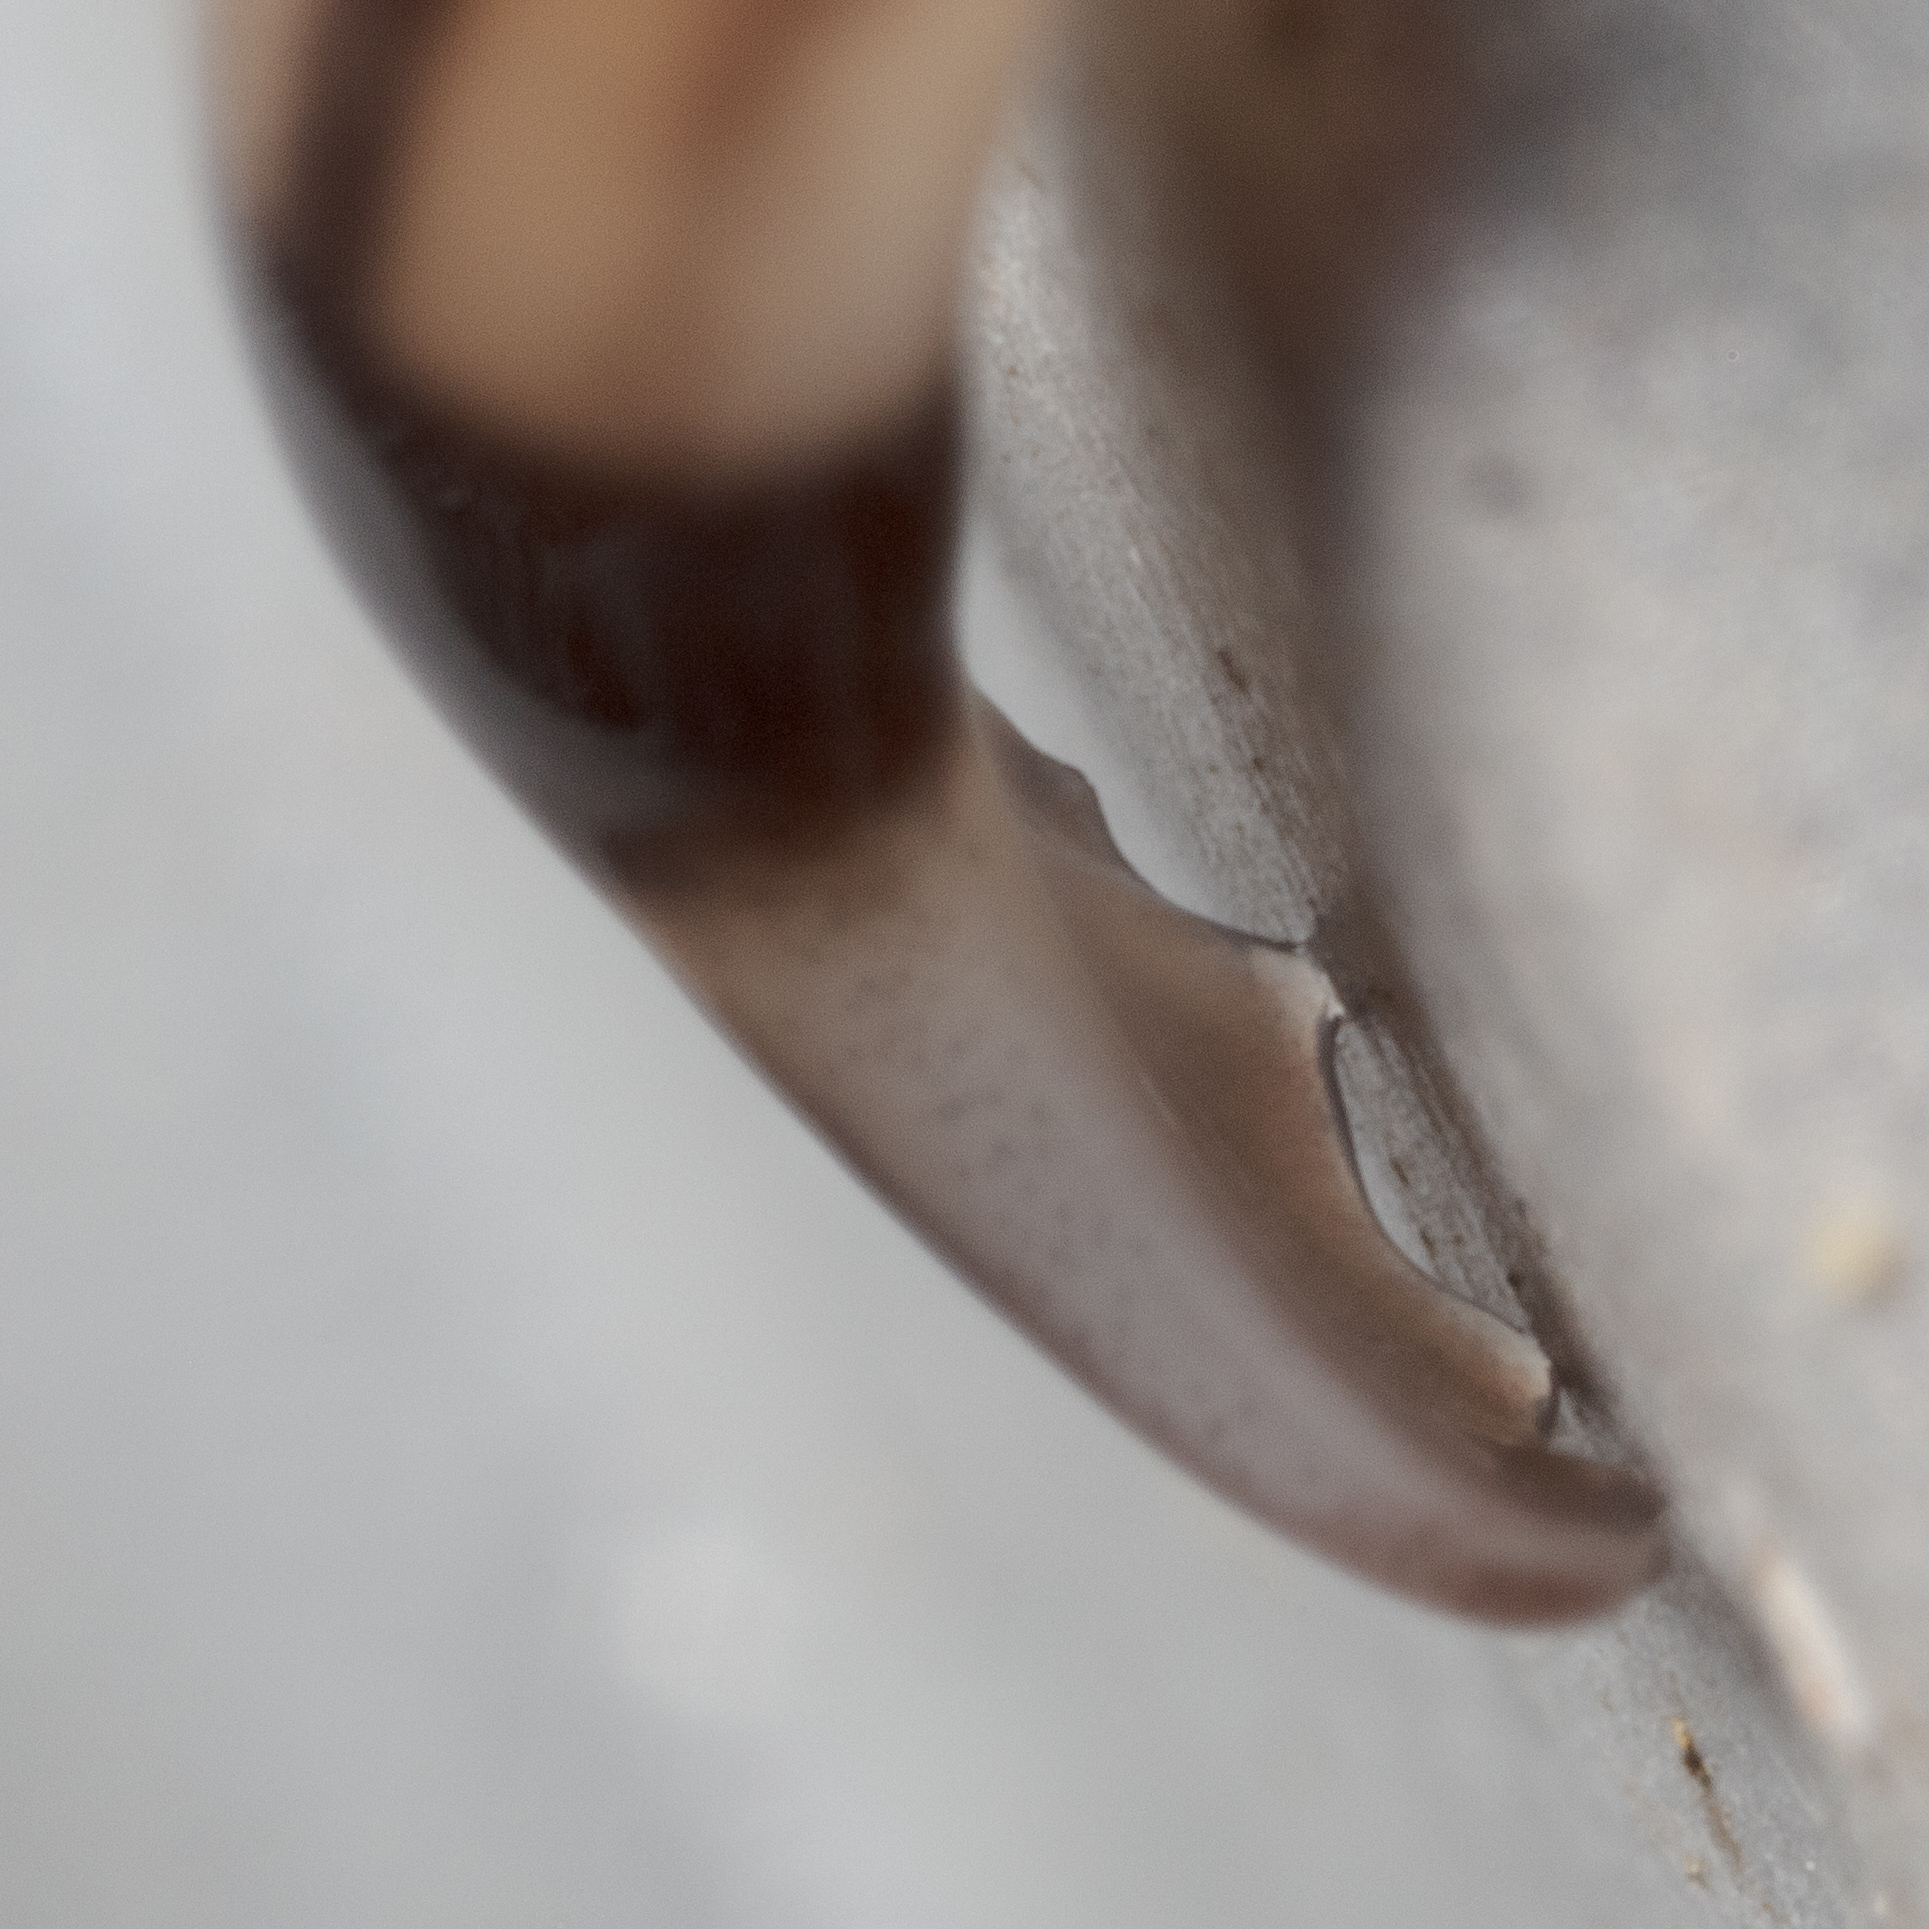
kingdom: Animalia
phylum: Platyhelminthes
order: Tricladida
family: Geoplanidae
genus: Bipalium
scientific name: Bipalium vagum
